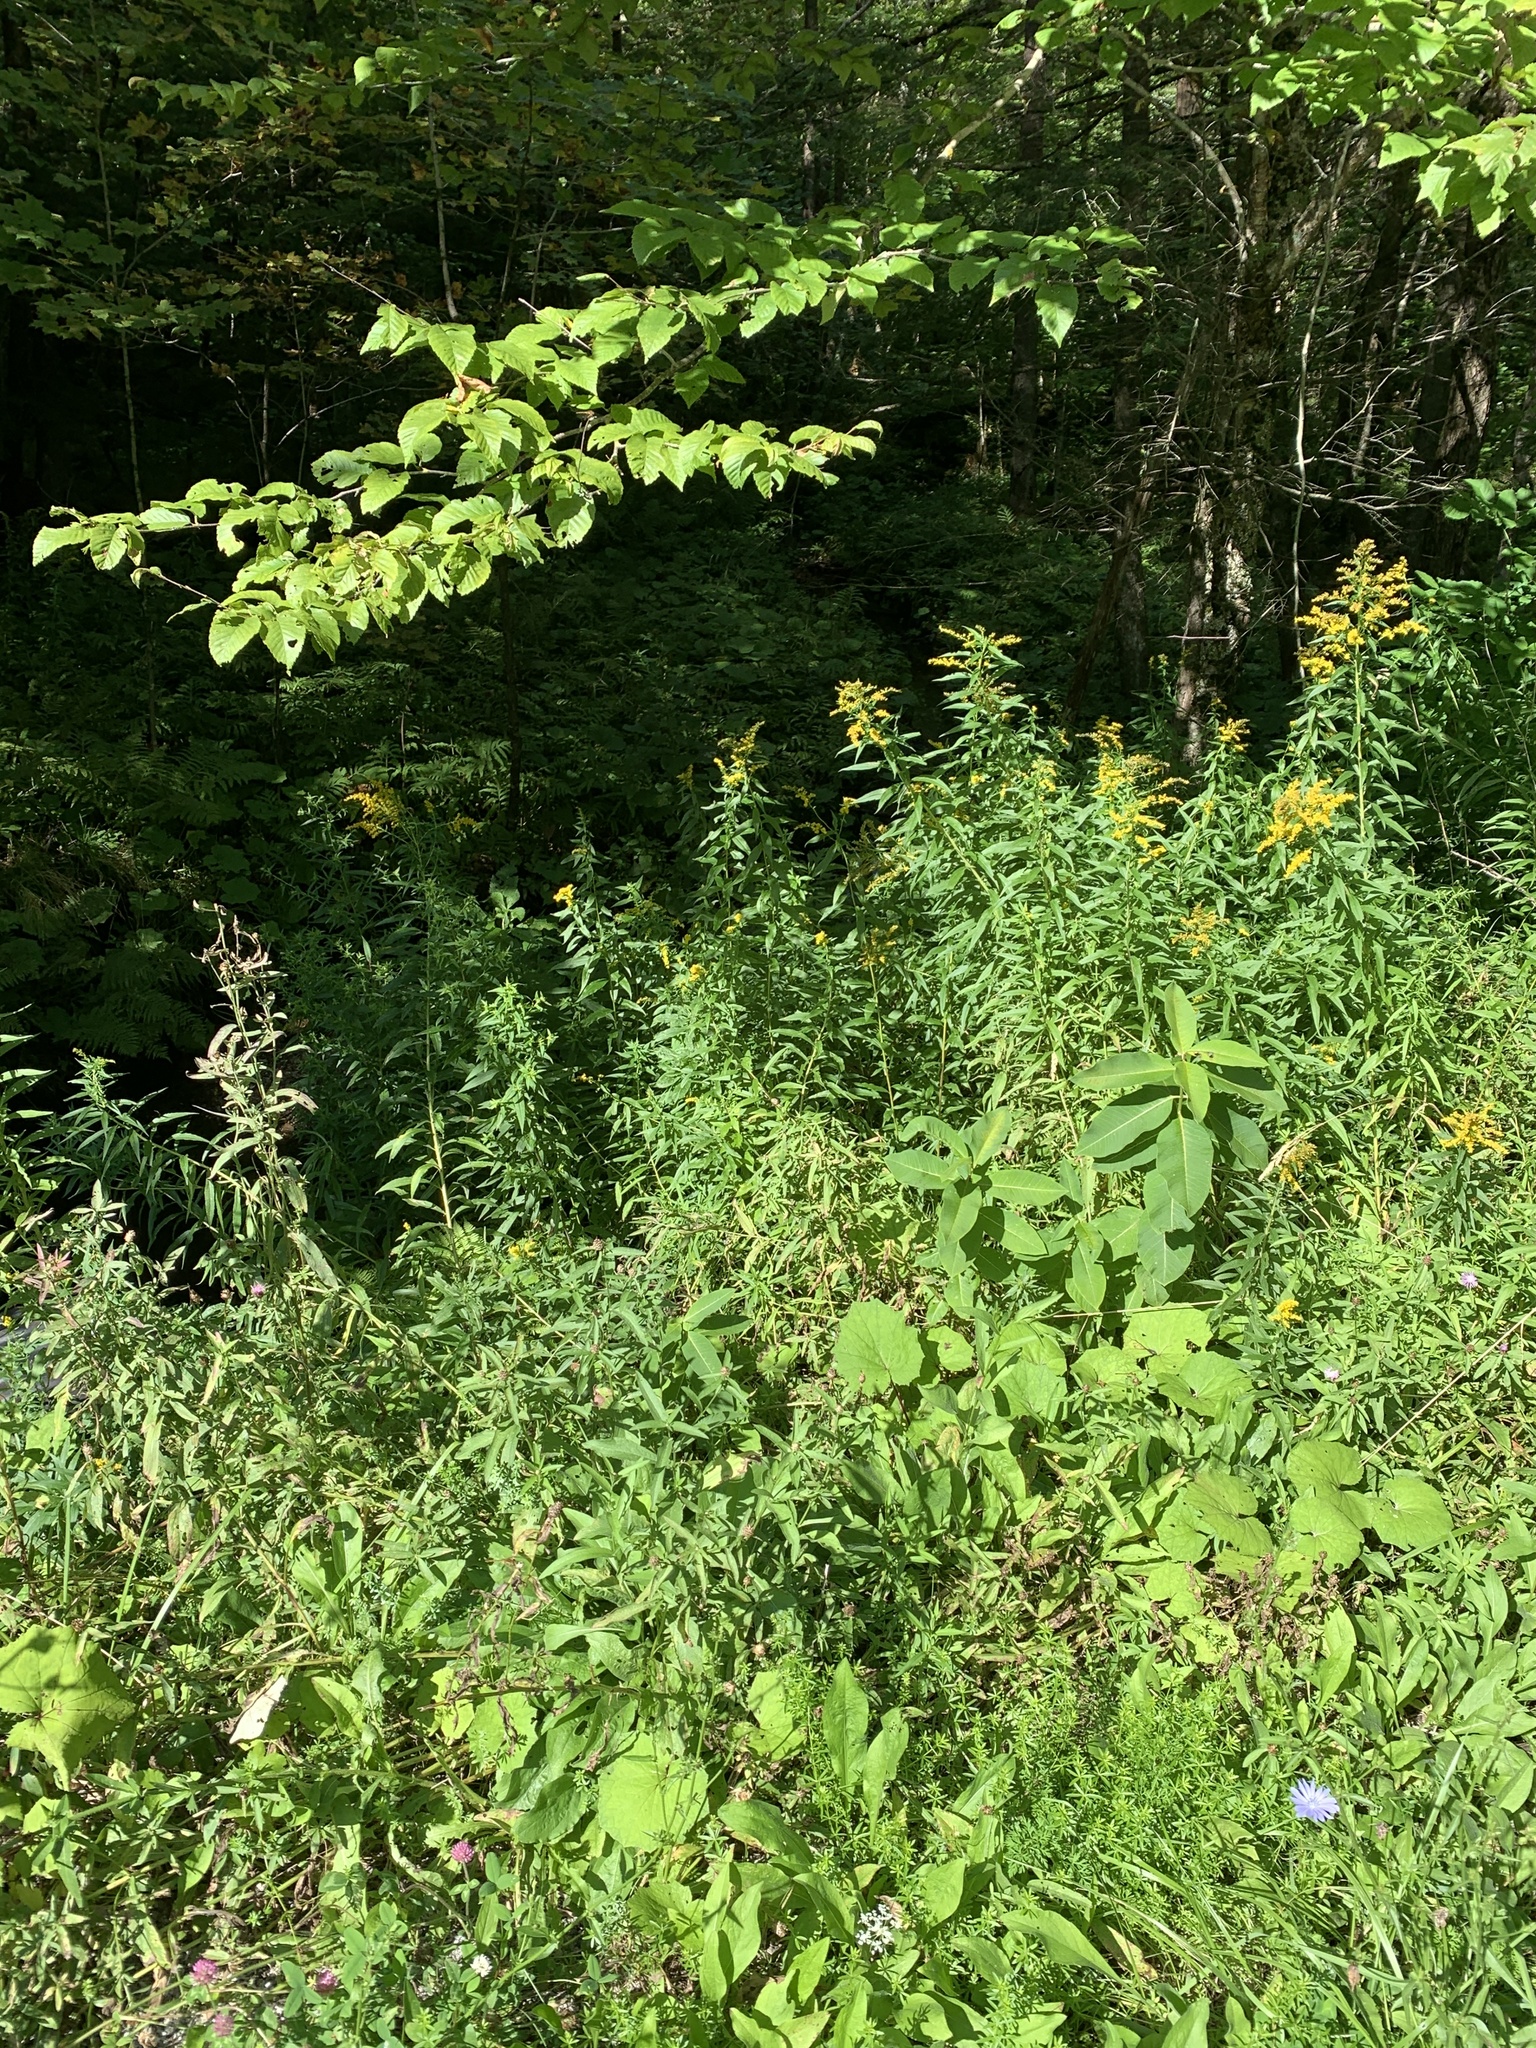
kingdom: Plantae
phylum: Tracheophyta
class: Magnoliopsida
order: Asterales
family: Asteraceae
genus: Tussilago
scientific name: Tussilago farfara
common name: Coltsfoot
